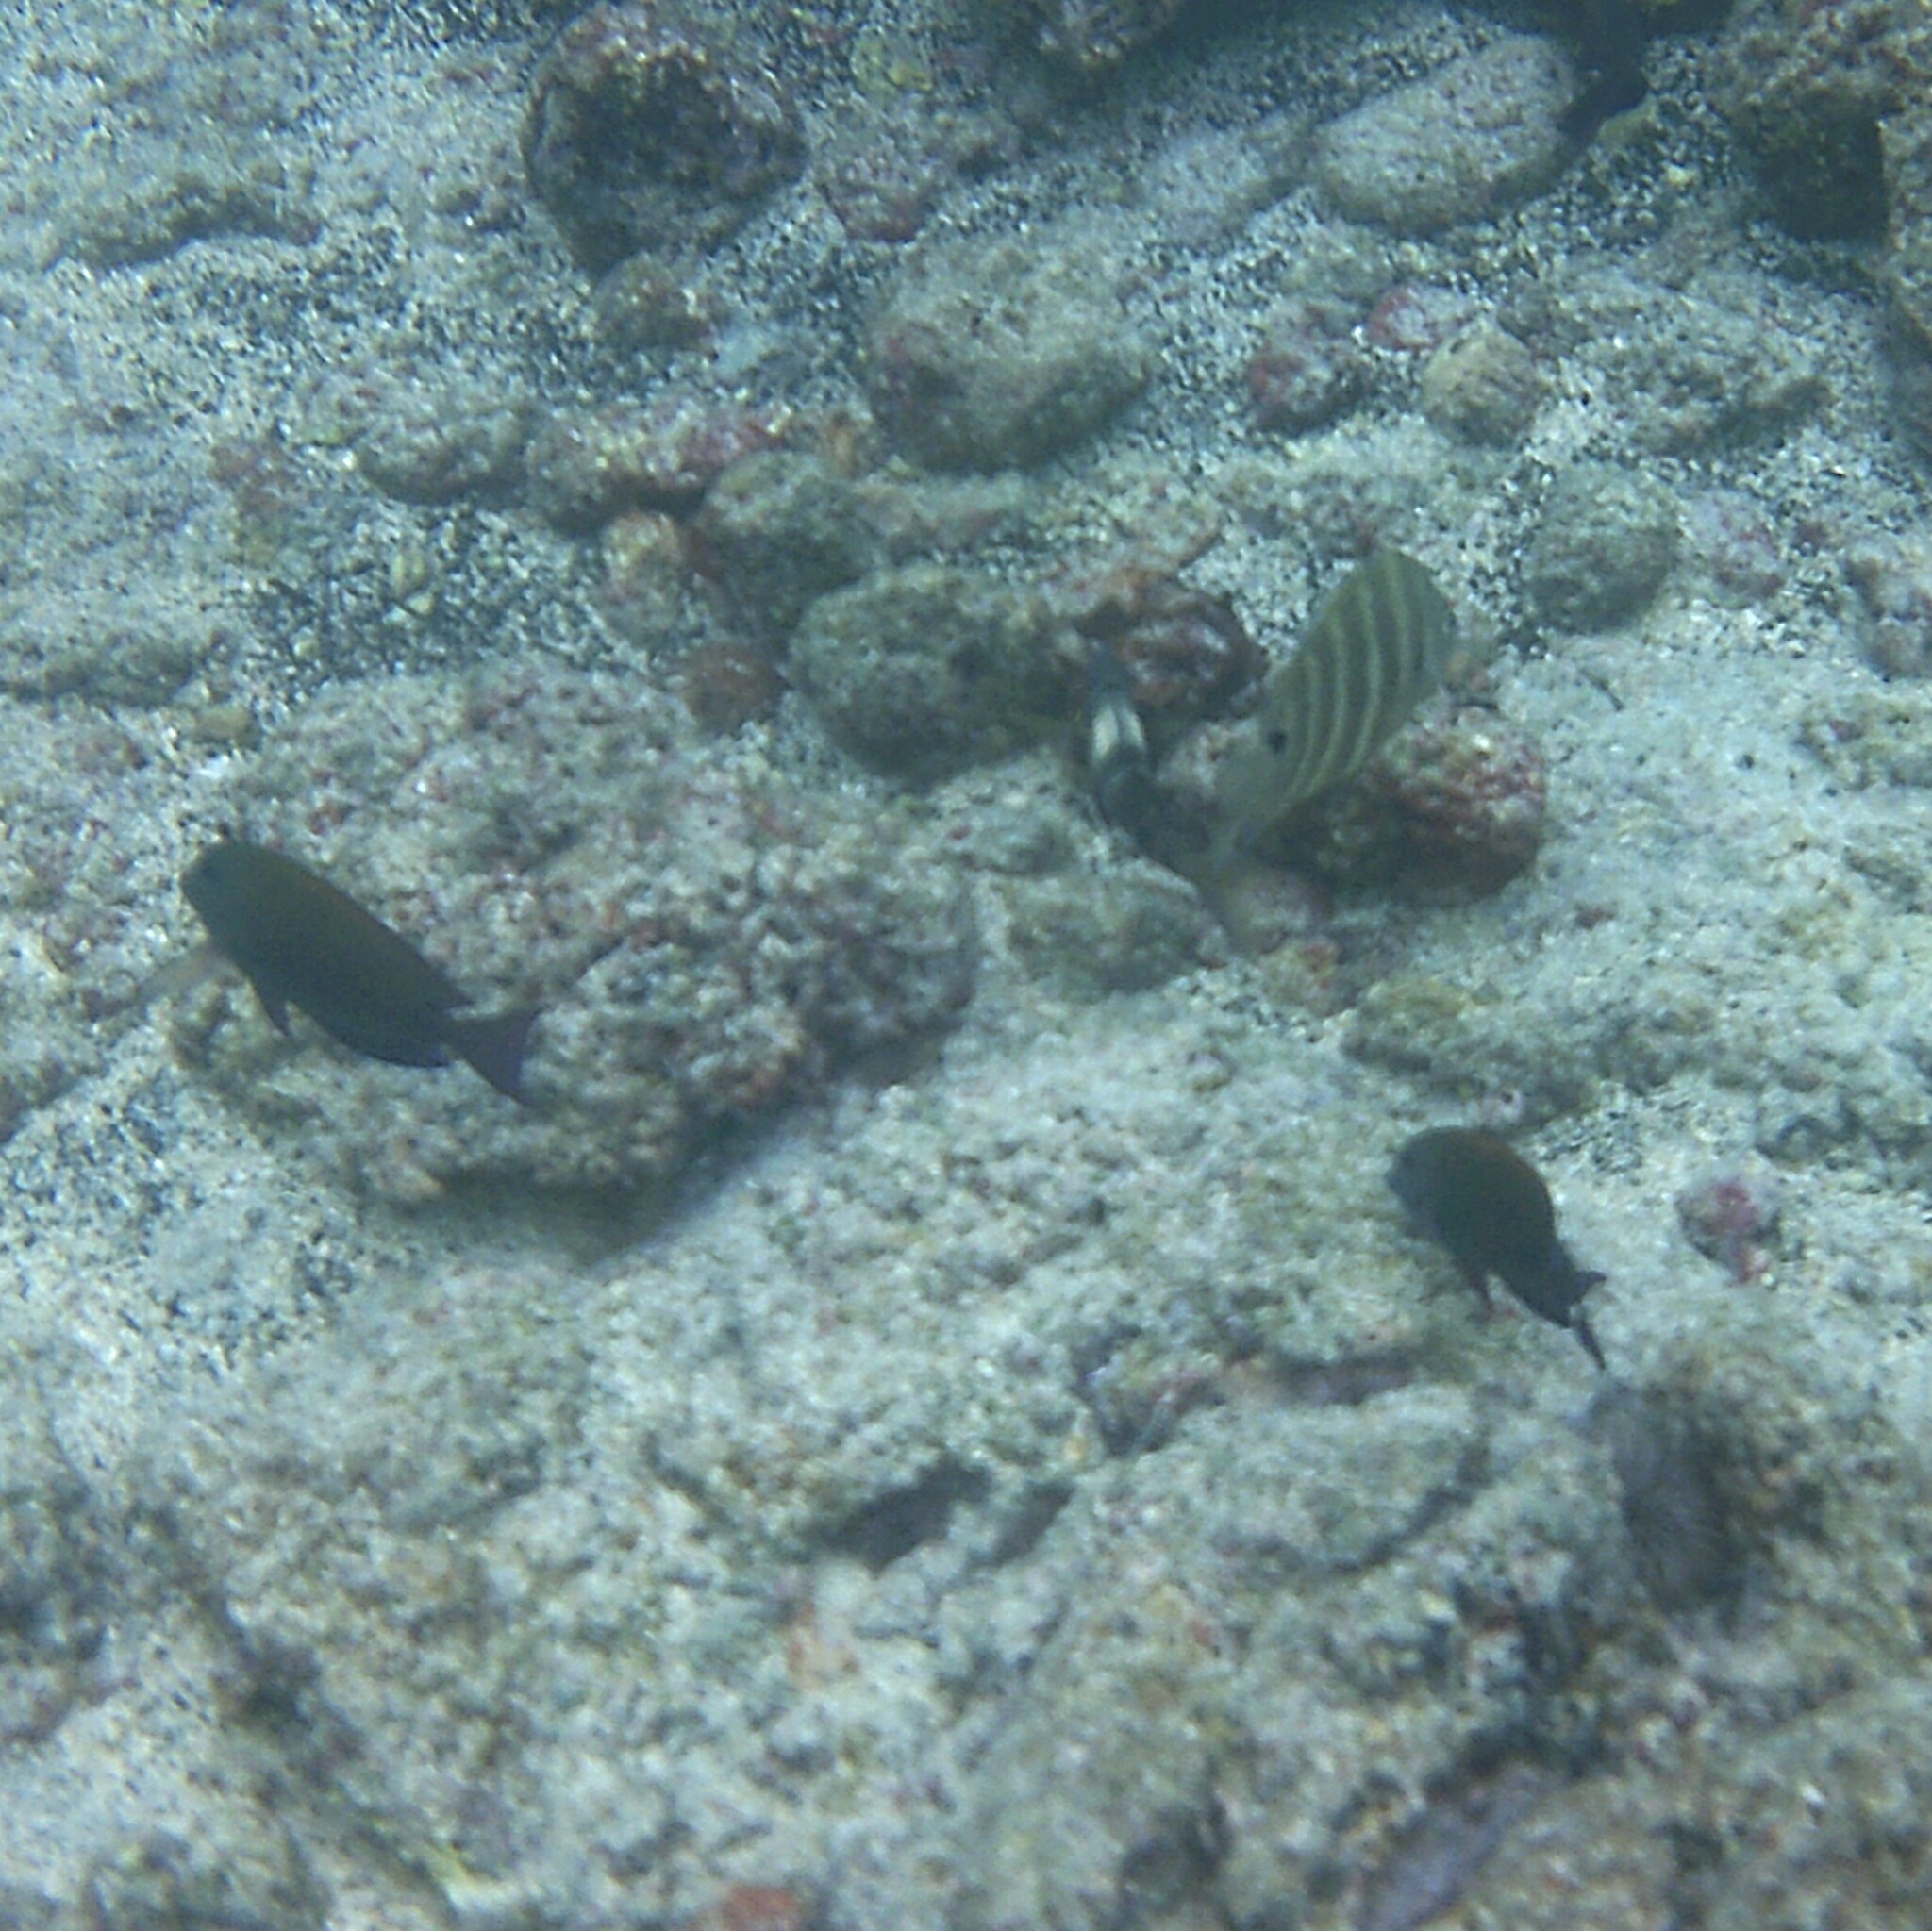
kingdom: Animalia
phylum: Chordata
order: Perciformes
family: Pomacentridae
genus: Abudefduf
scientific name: Abudefduf sordidus
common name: Blackspot sergeant
